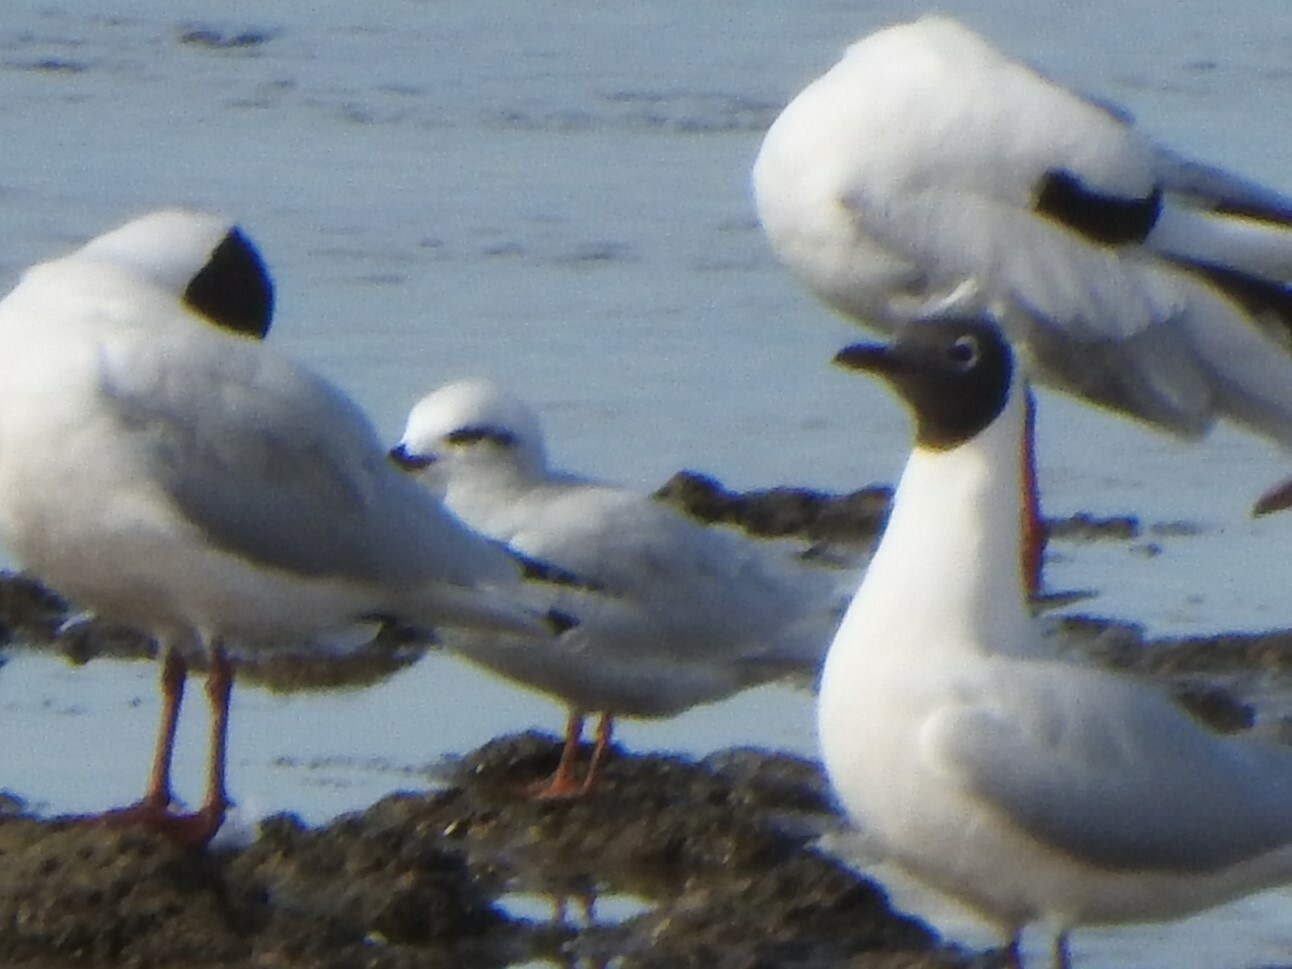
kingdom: Animalia
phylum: Chordata
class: Aves
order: Charadriiformes
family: Laridae
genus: Sterna
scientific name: Sterna trudeaui
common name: Snowy-crowned tern
